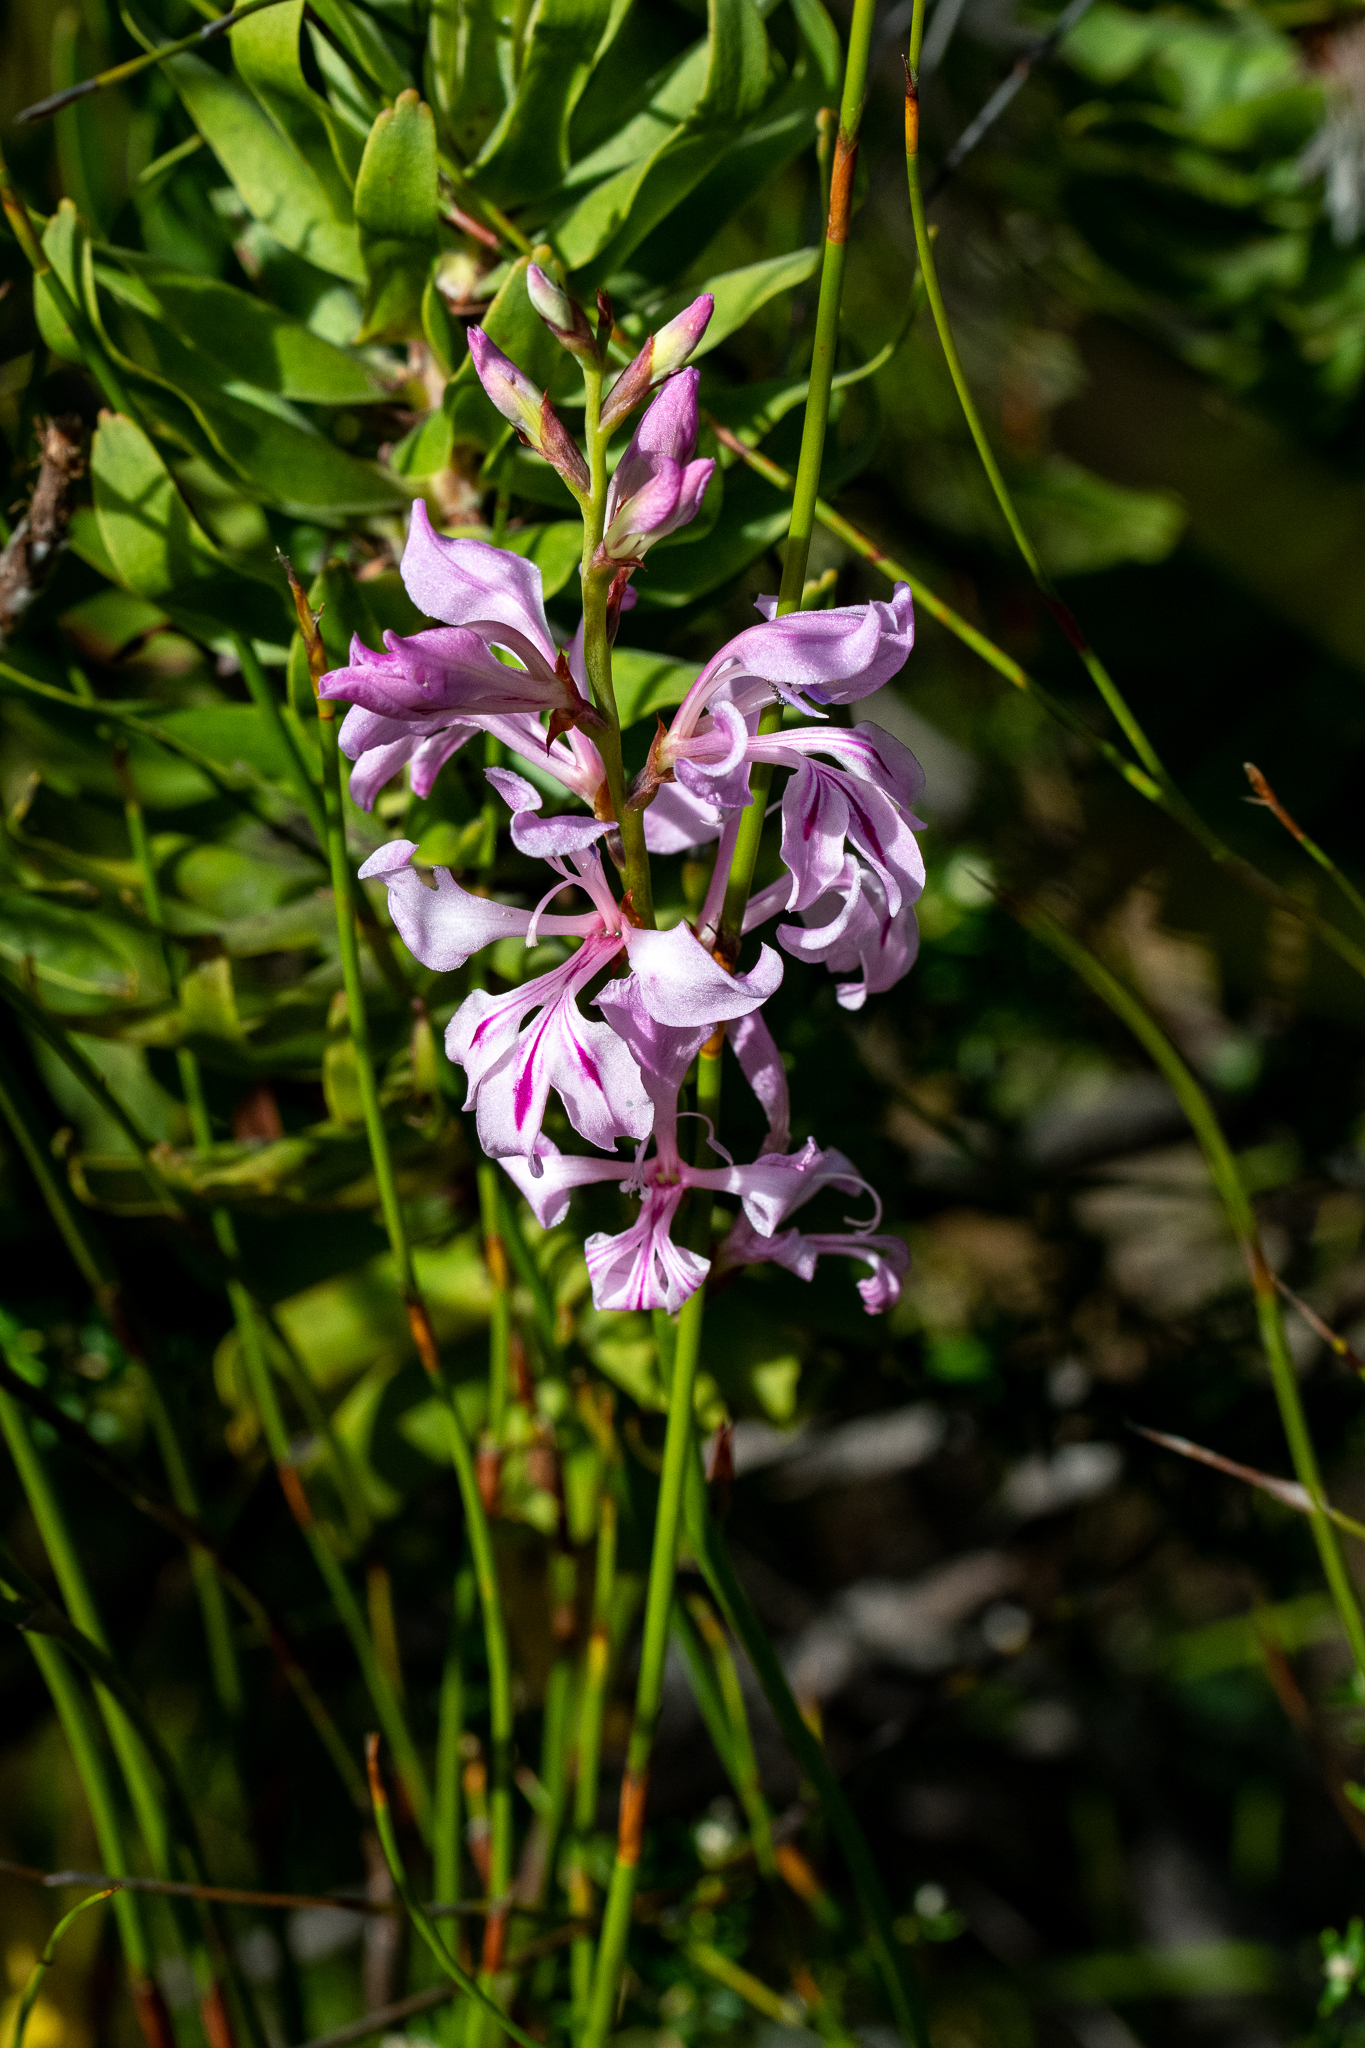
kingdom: Plantae
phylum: Tracheophyta
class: Liliopsida
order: Asparagales
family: Iridaceae
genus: Tritoniopsis
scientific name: Tritoniopsis lata
